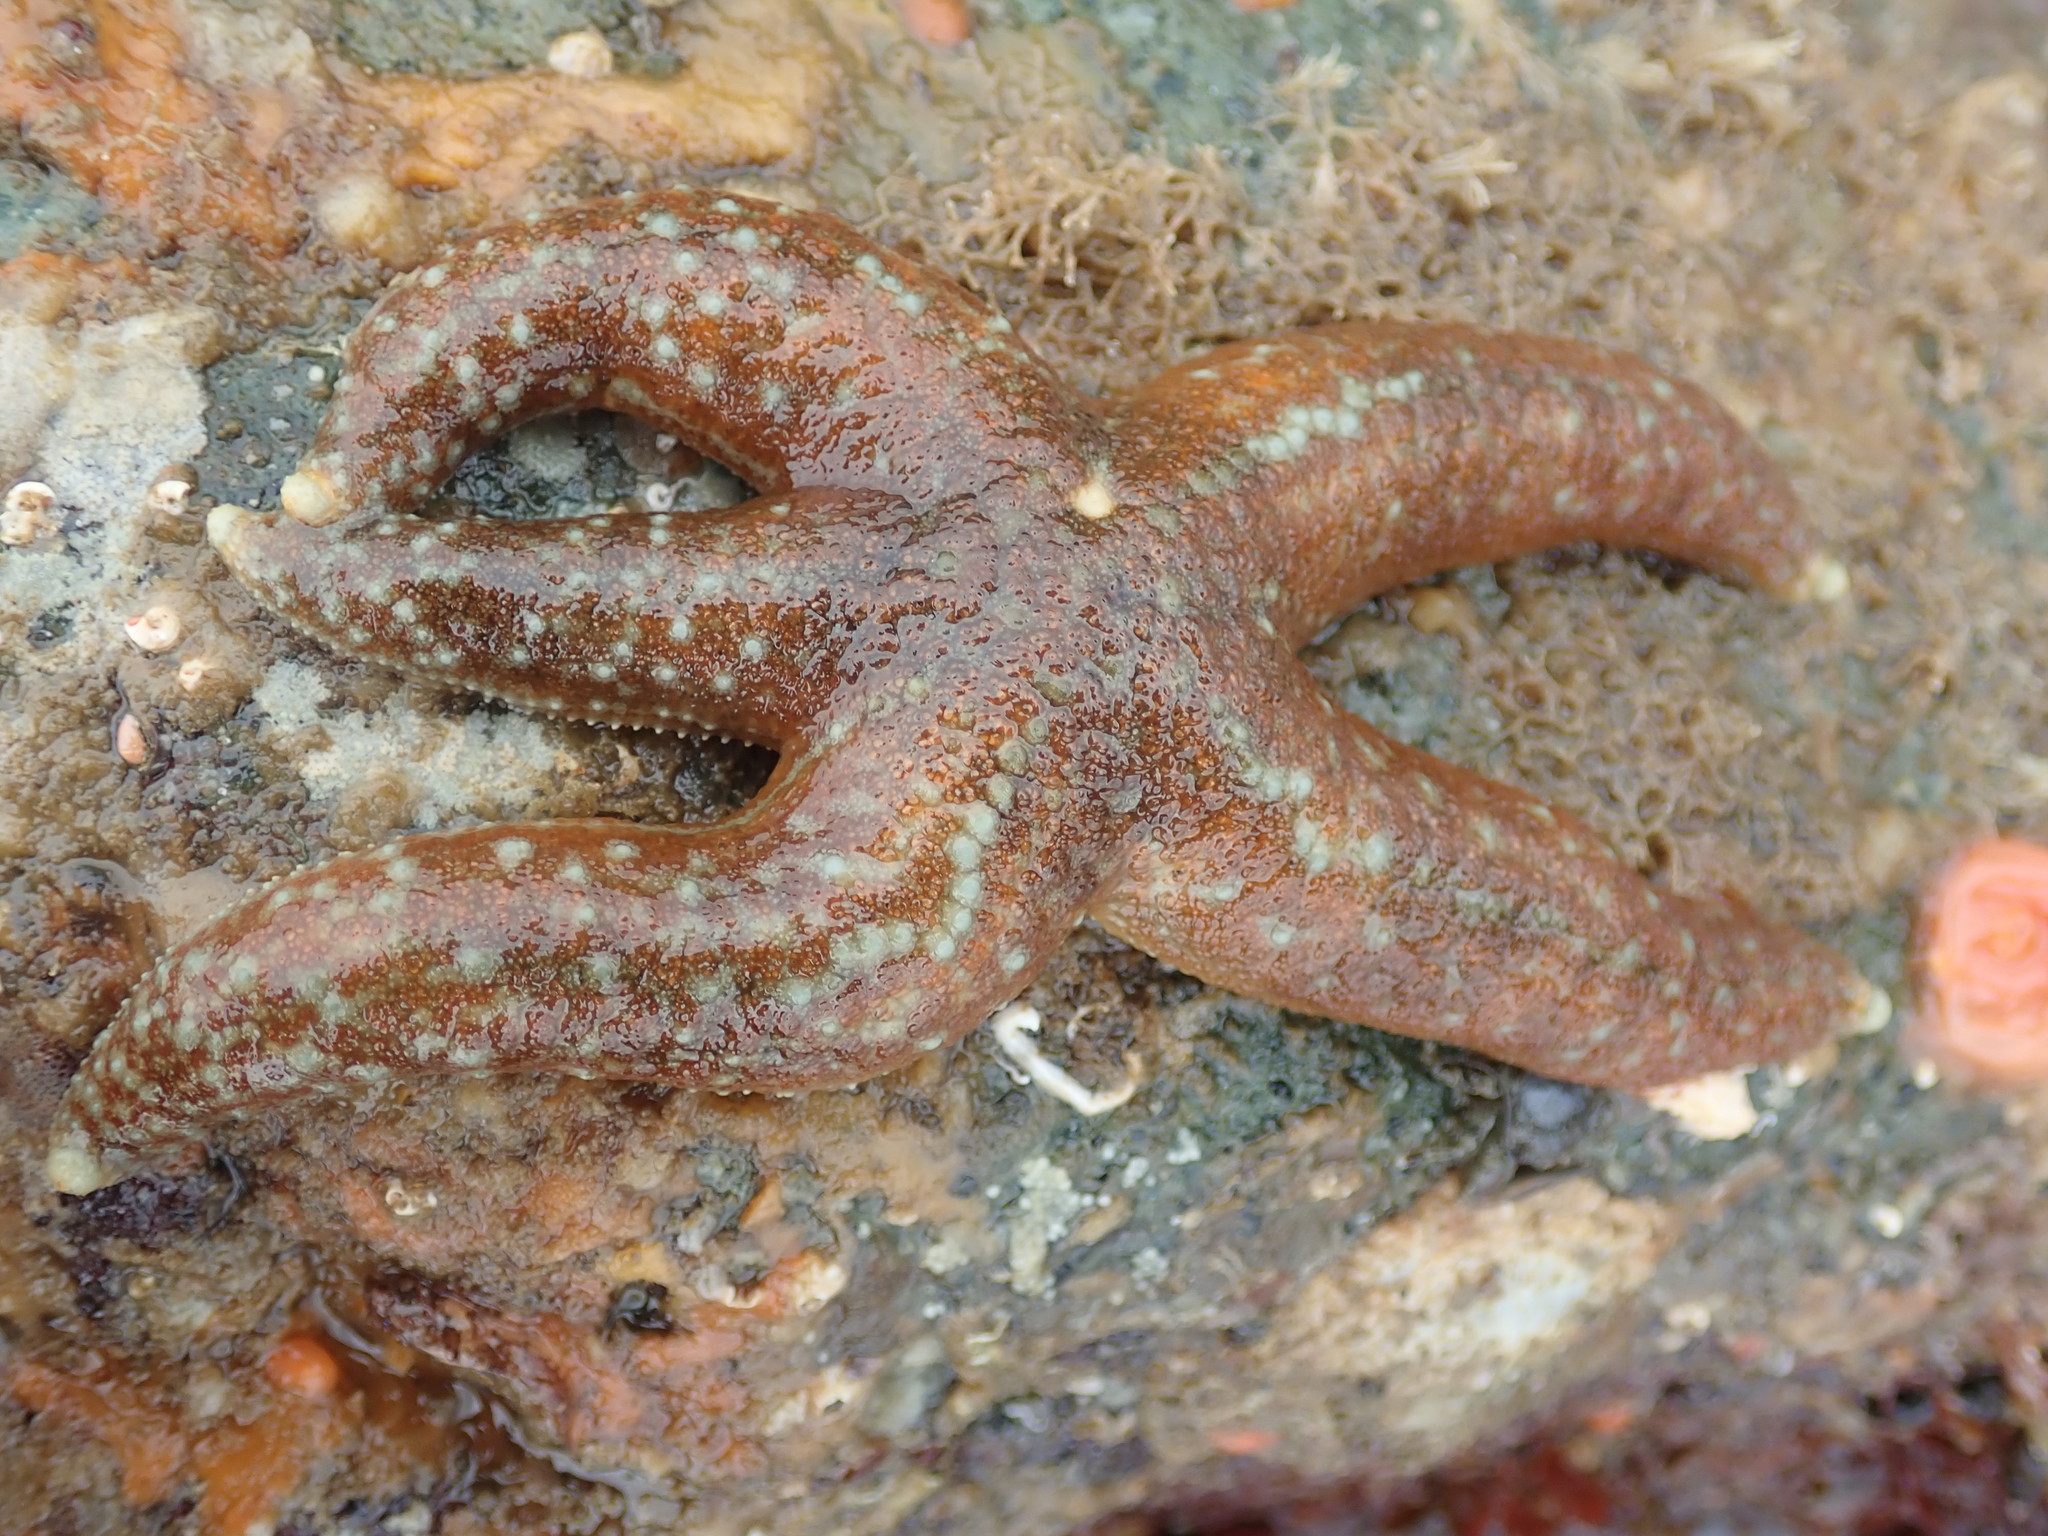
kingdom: Animalia
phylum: Echinodermata
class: Asteroidea
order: Forcipulatida
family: Asteriidae
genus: Evasterias
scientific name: Evasterias troschelii
